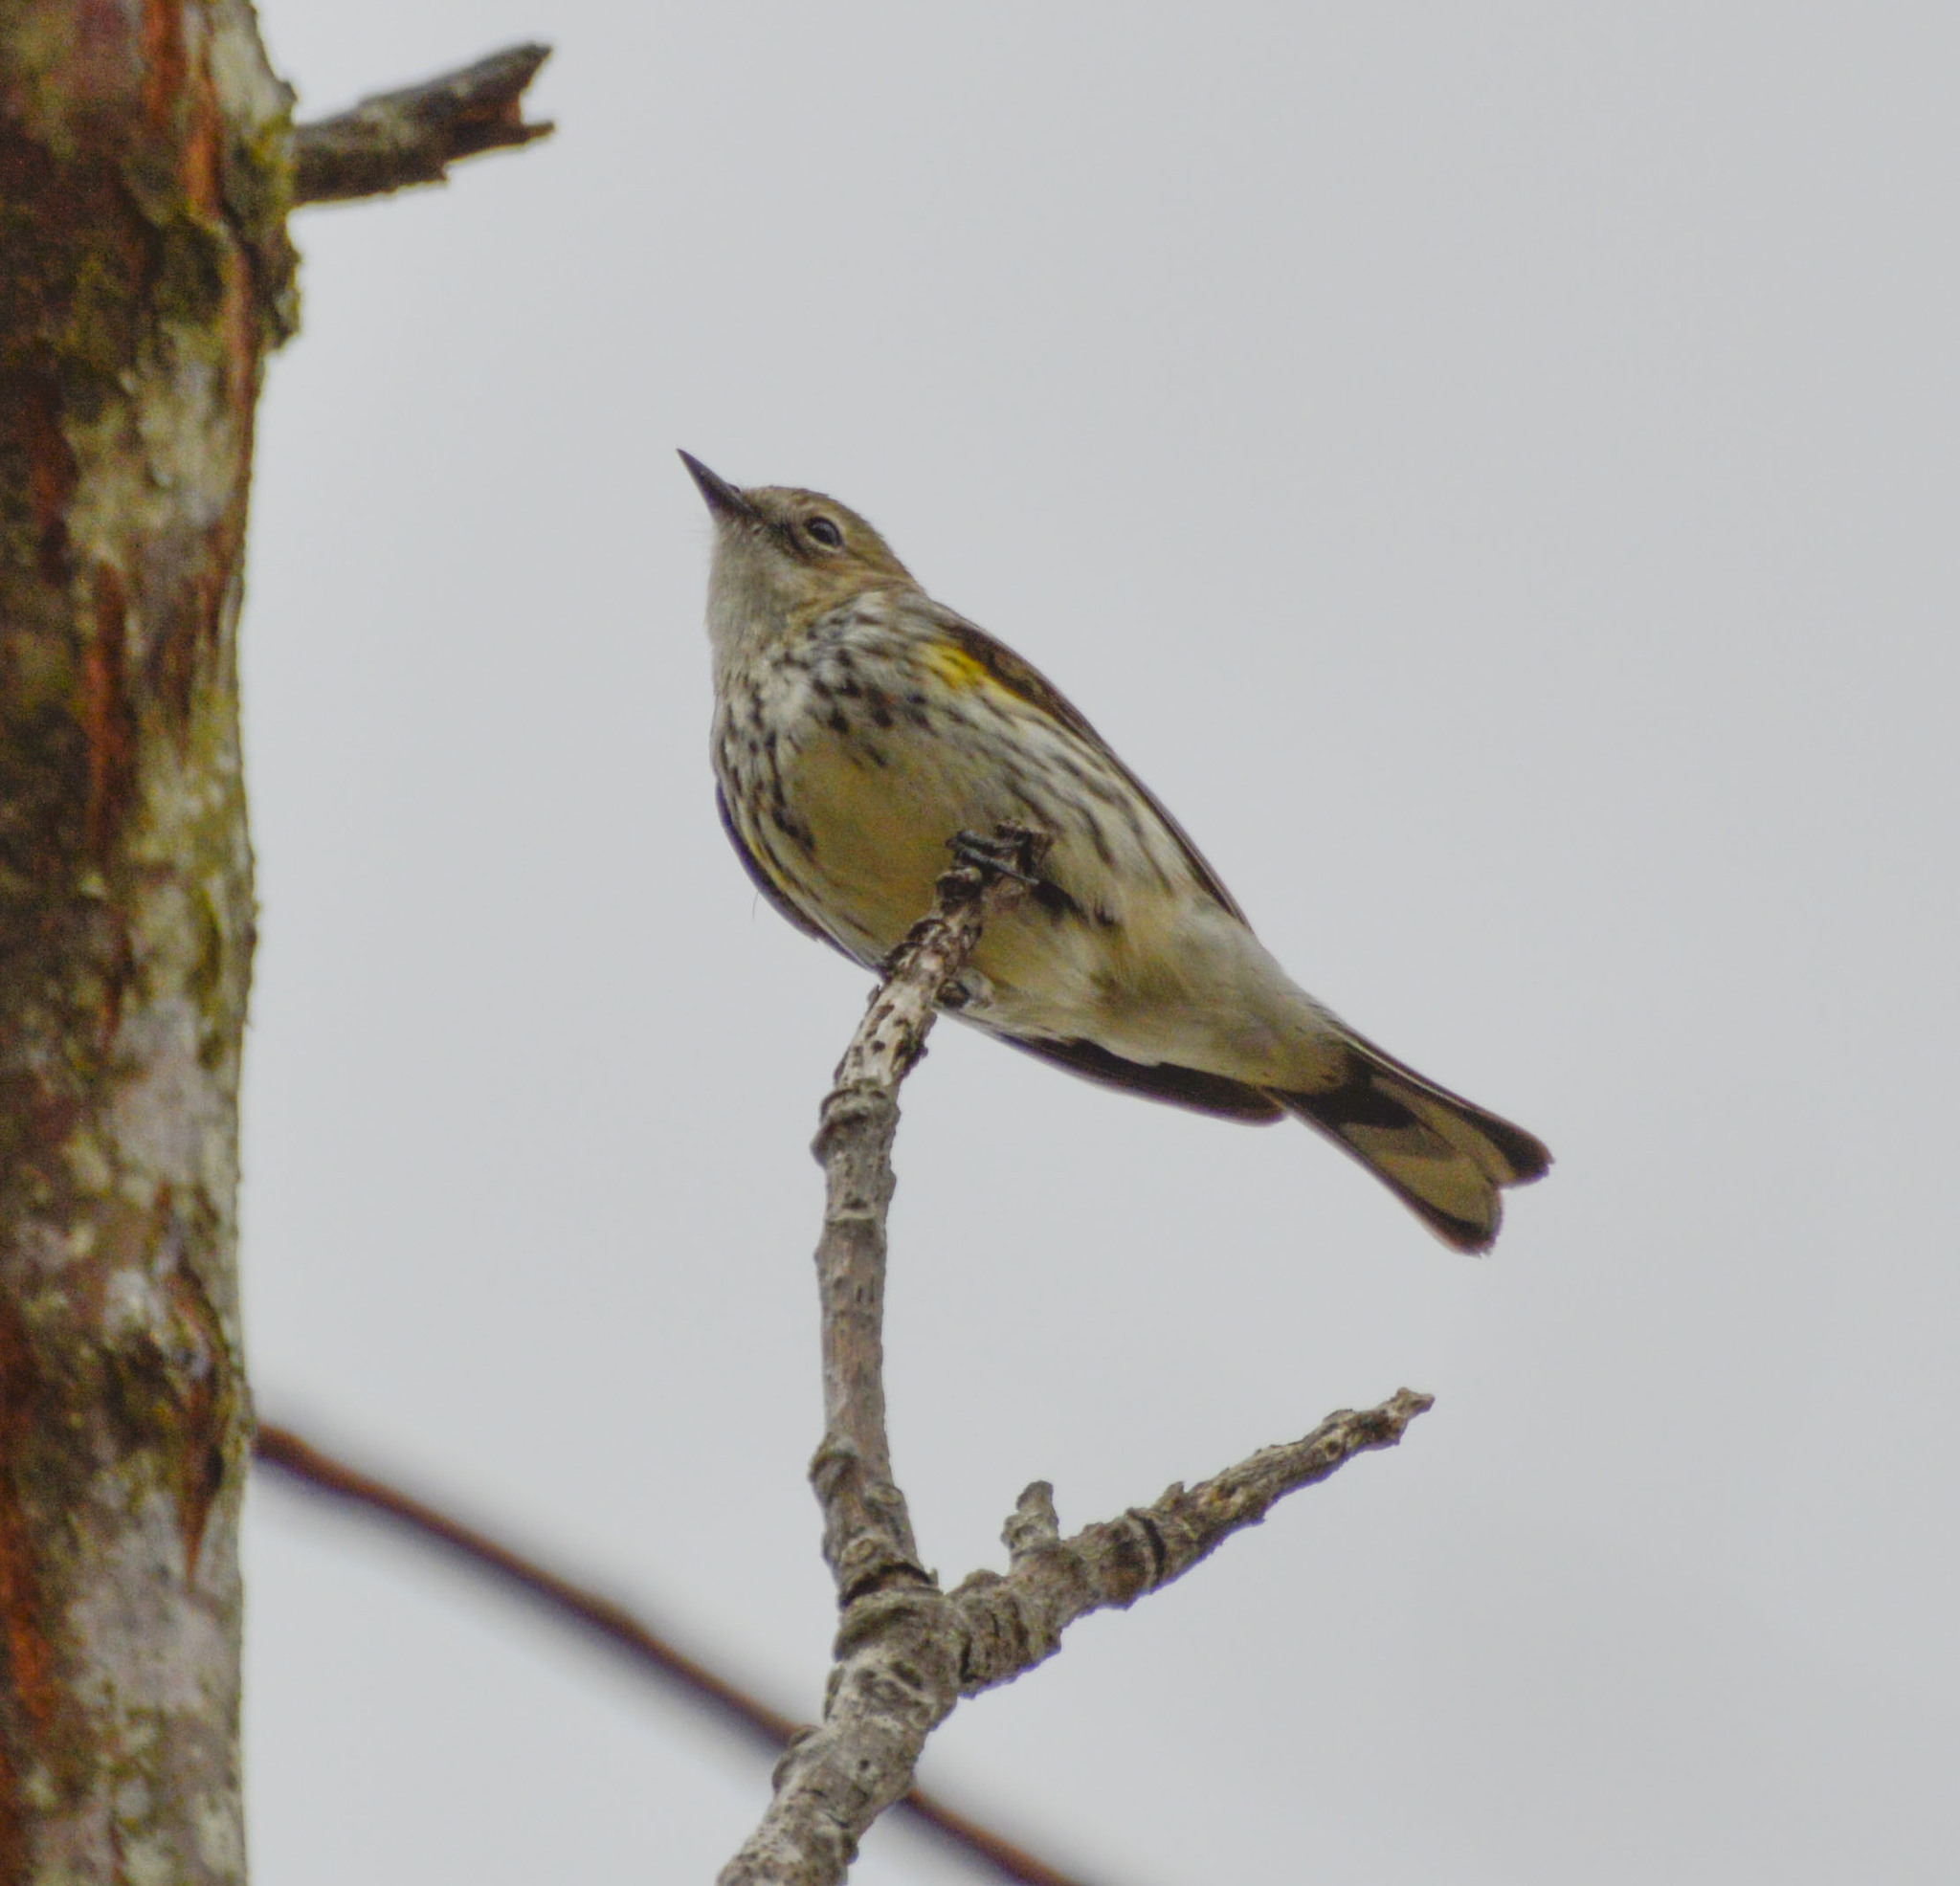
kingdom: Animalia
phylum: Chordata
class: Aves
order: Passeriformes
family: Parulidae
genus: Setophaga
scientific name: Setophaga coronata
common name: Myrtle warbler
